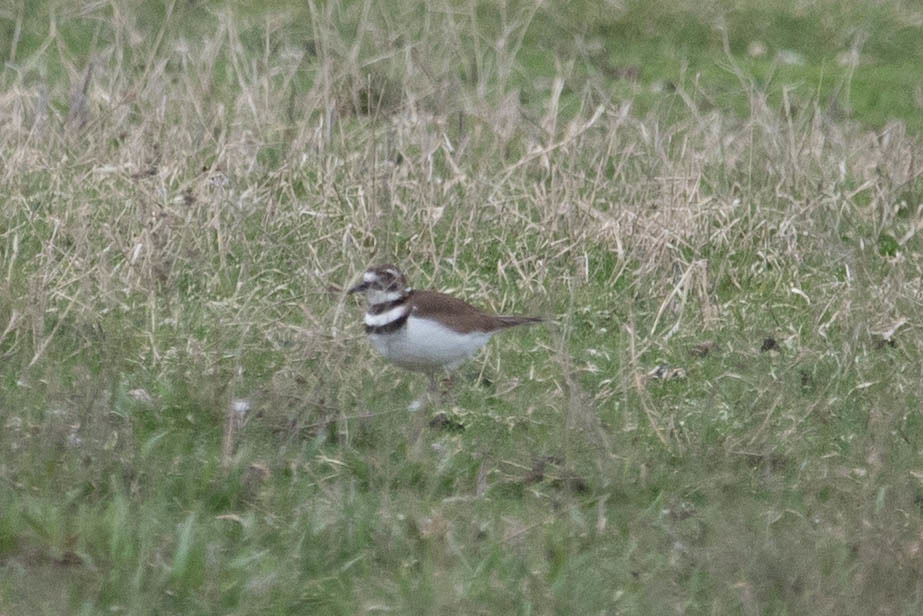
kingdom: Animalia
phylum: Chordata
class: Aves
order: Charadriiformes
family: Charadriidae
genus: Charadrius
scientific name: Charadrius vociferus
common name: Killdeer
